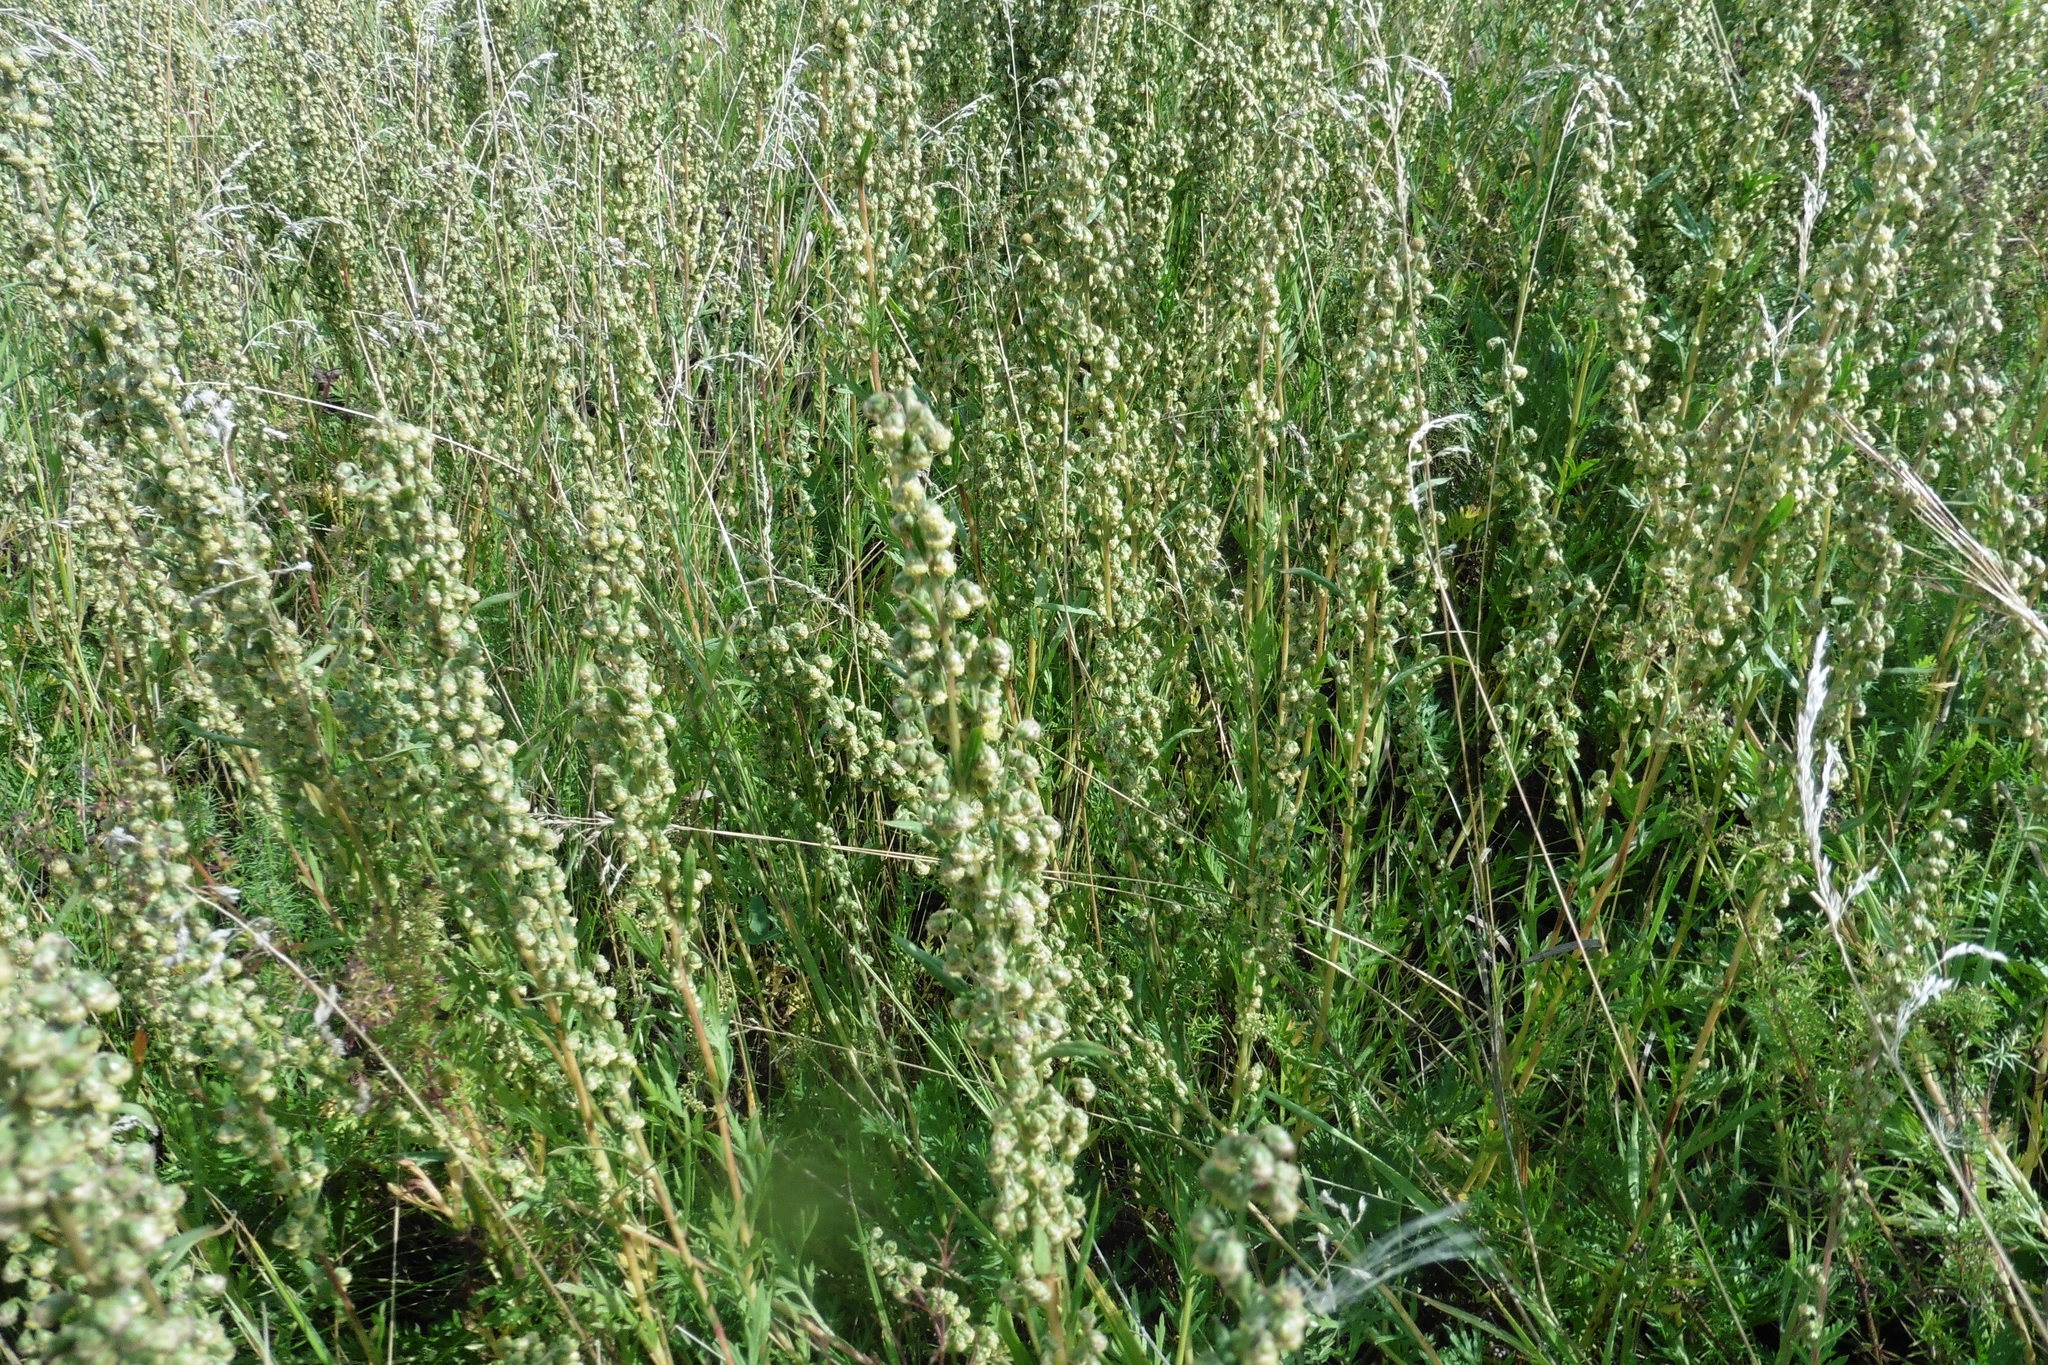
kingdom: Plantae
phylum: Tracheophyta
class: Magnoliopsida
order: Asterales
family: Asteraceae
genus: Artemisia
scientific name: Artemisia latifolia
